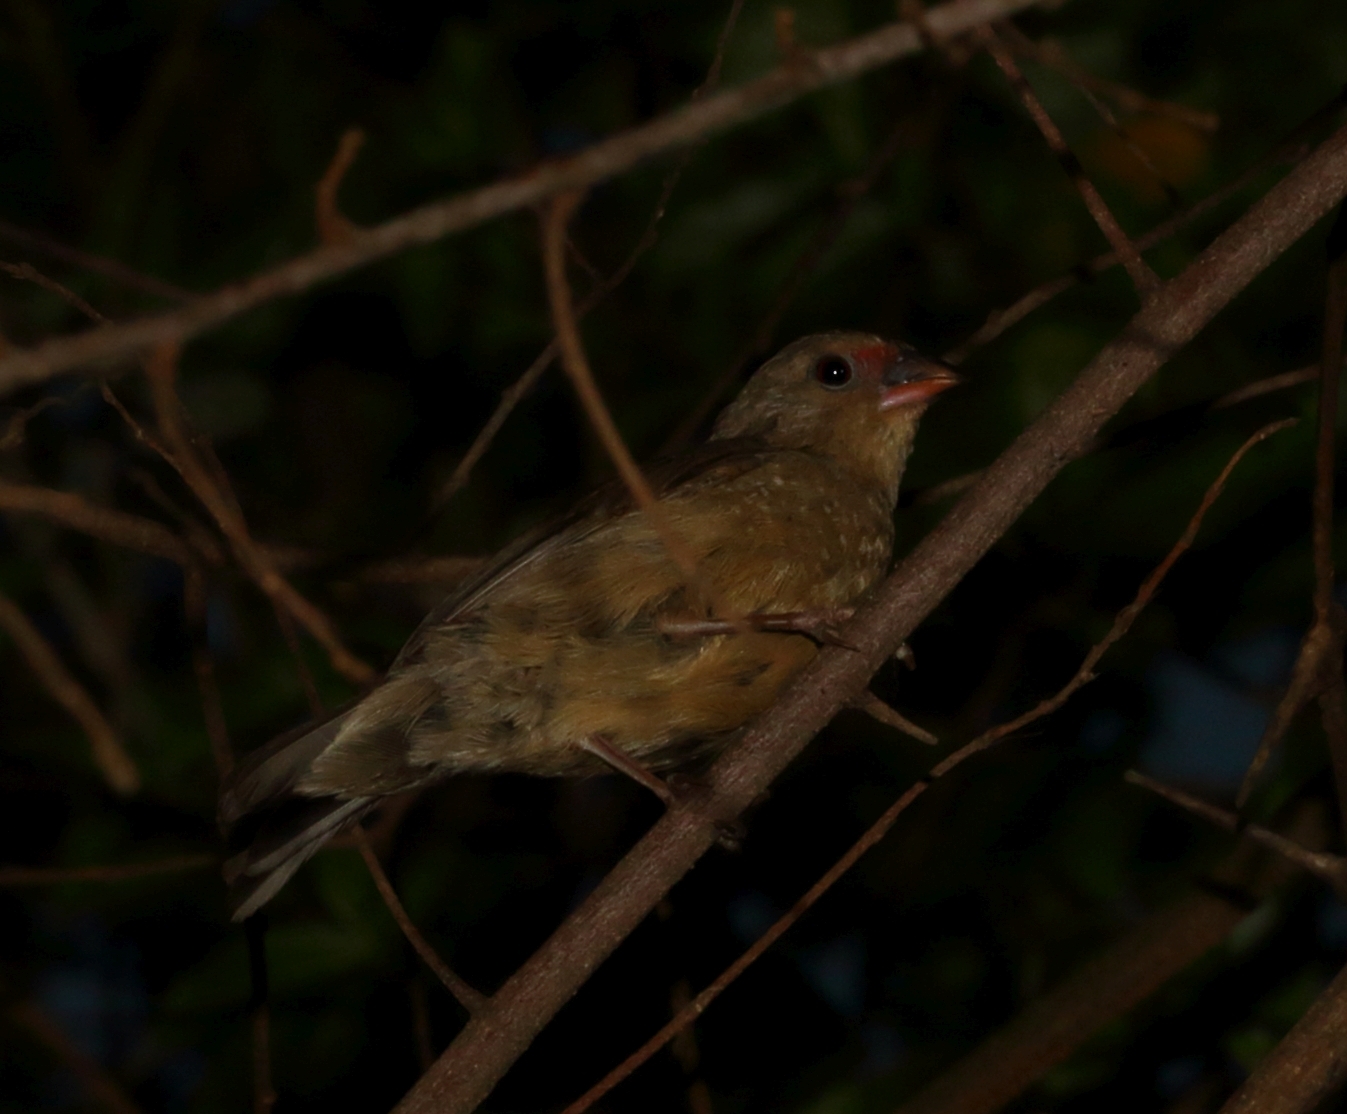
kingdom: Animalia
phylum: Chordata
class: Aves
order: Passeriformes
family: Estrildidae
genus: Lagonosticta
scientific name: Lagonosticta senegala
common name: Red-billed firefinch
